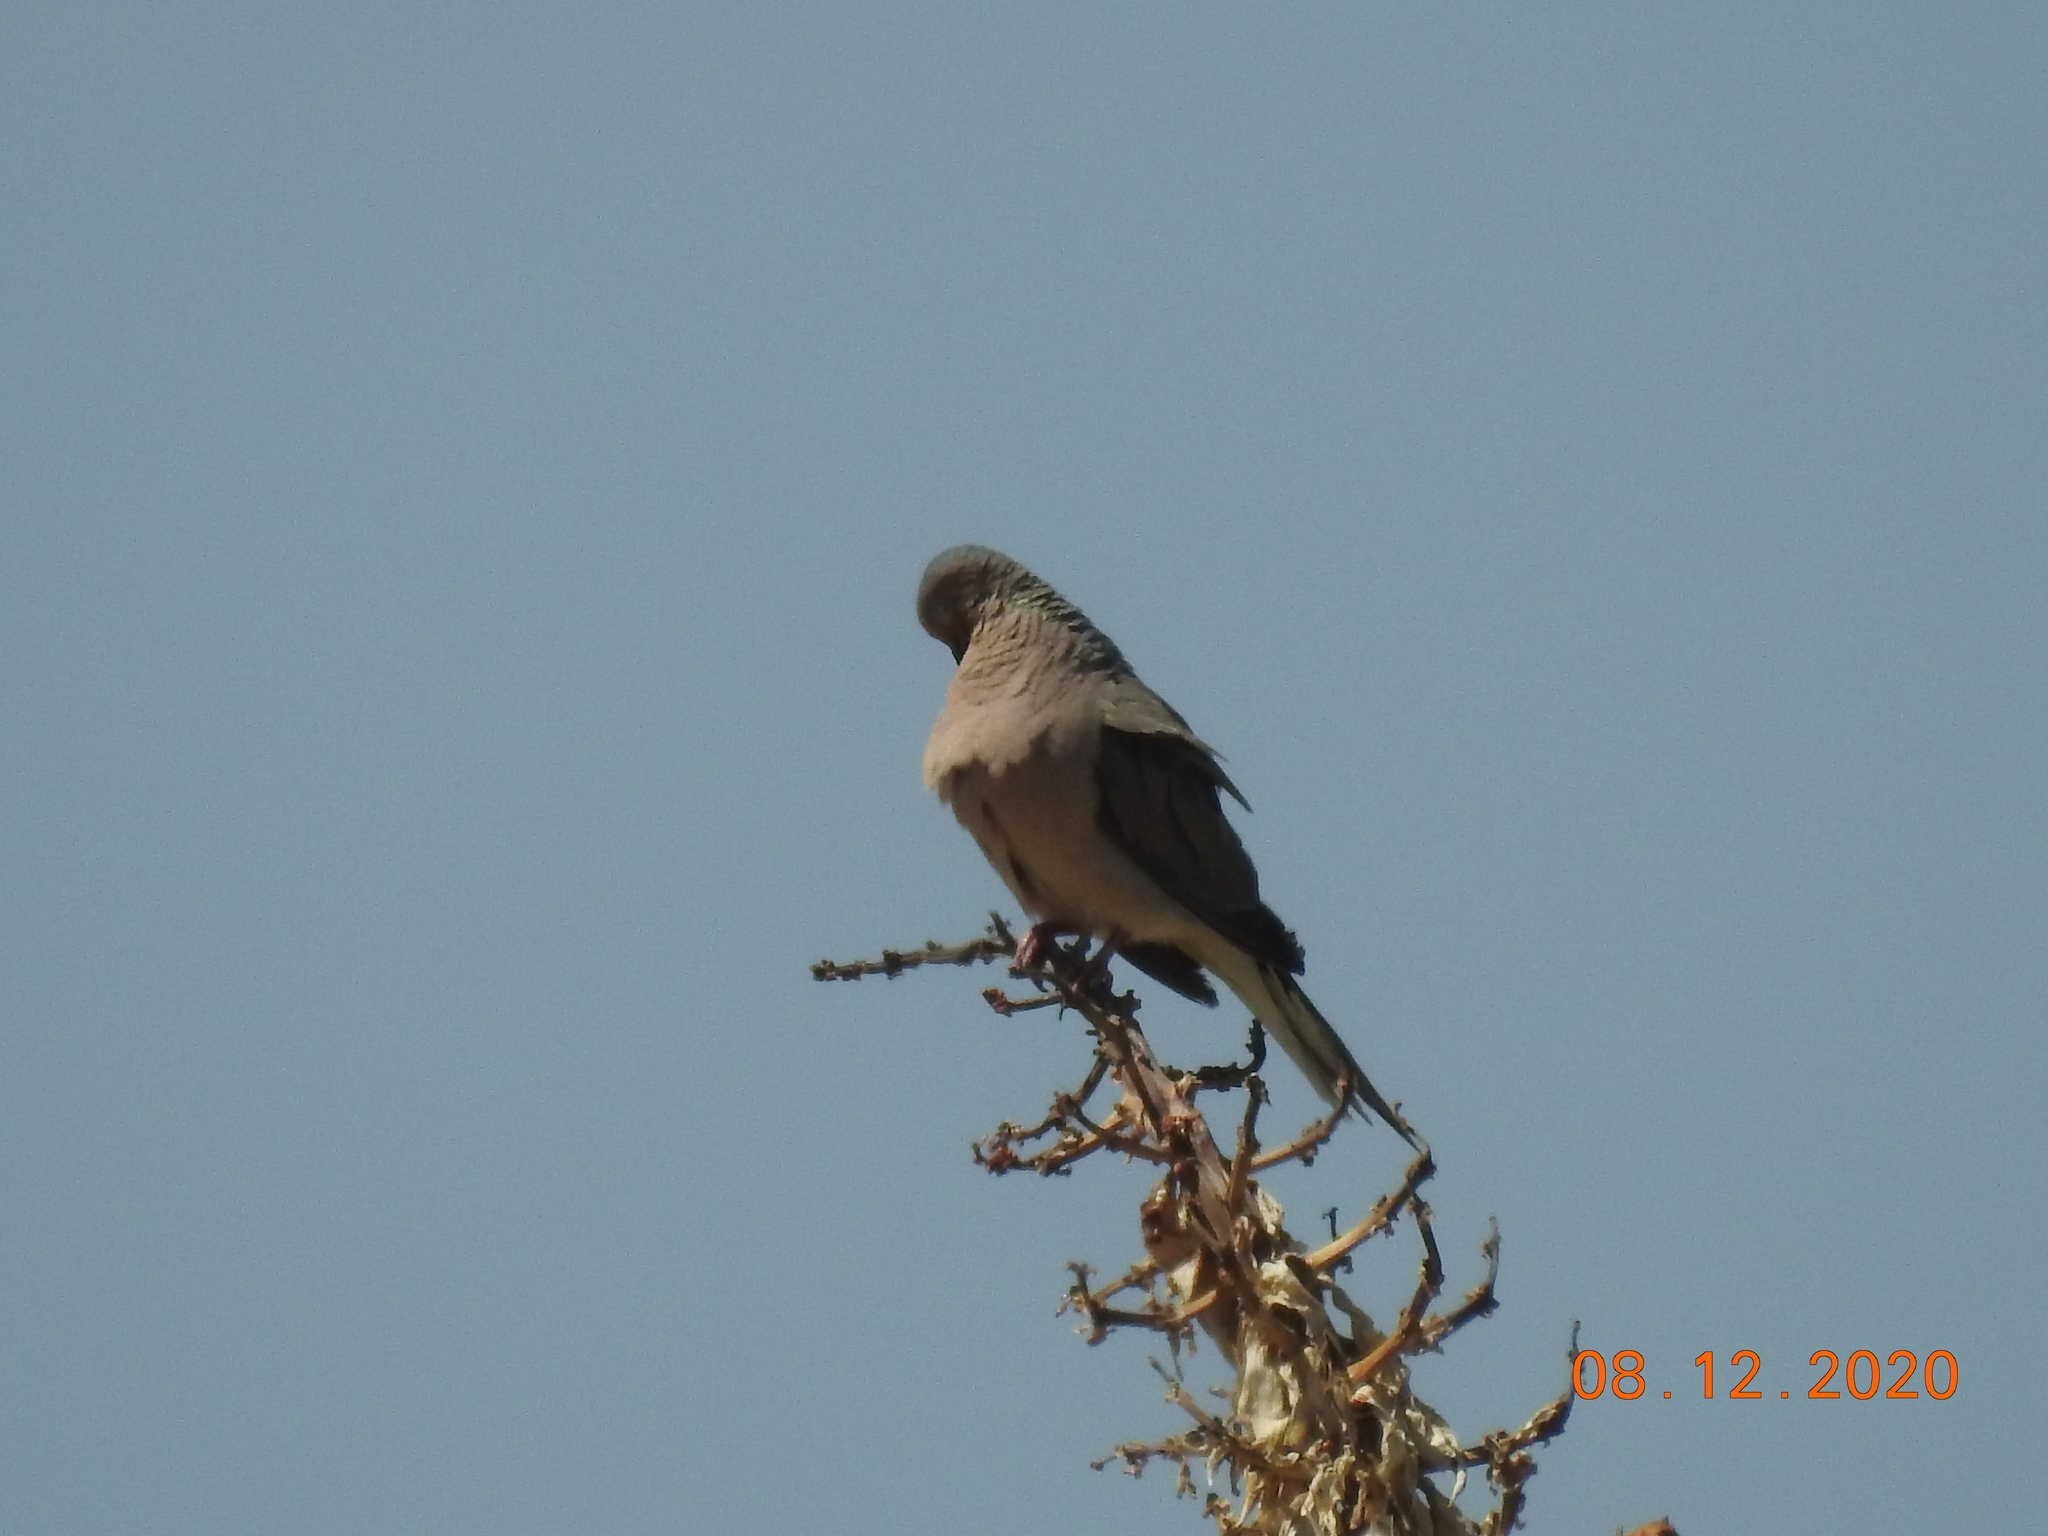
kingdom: Animalia
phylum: Chordata
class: Aves
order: Columbiformes
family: Columbidae
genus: Zenaida
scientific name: Zenaida macroura
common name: Mourning dove
